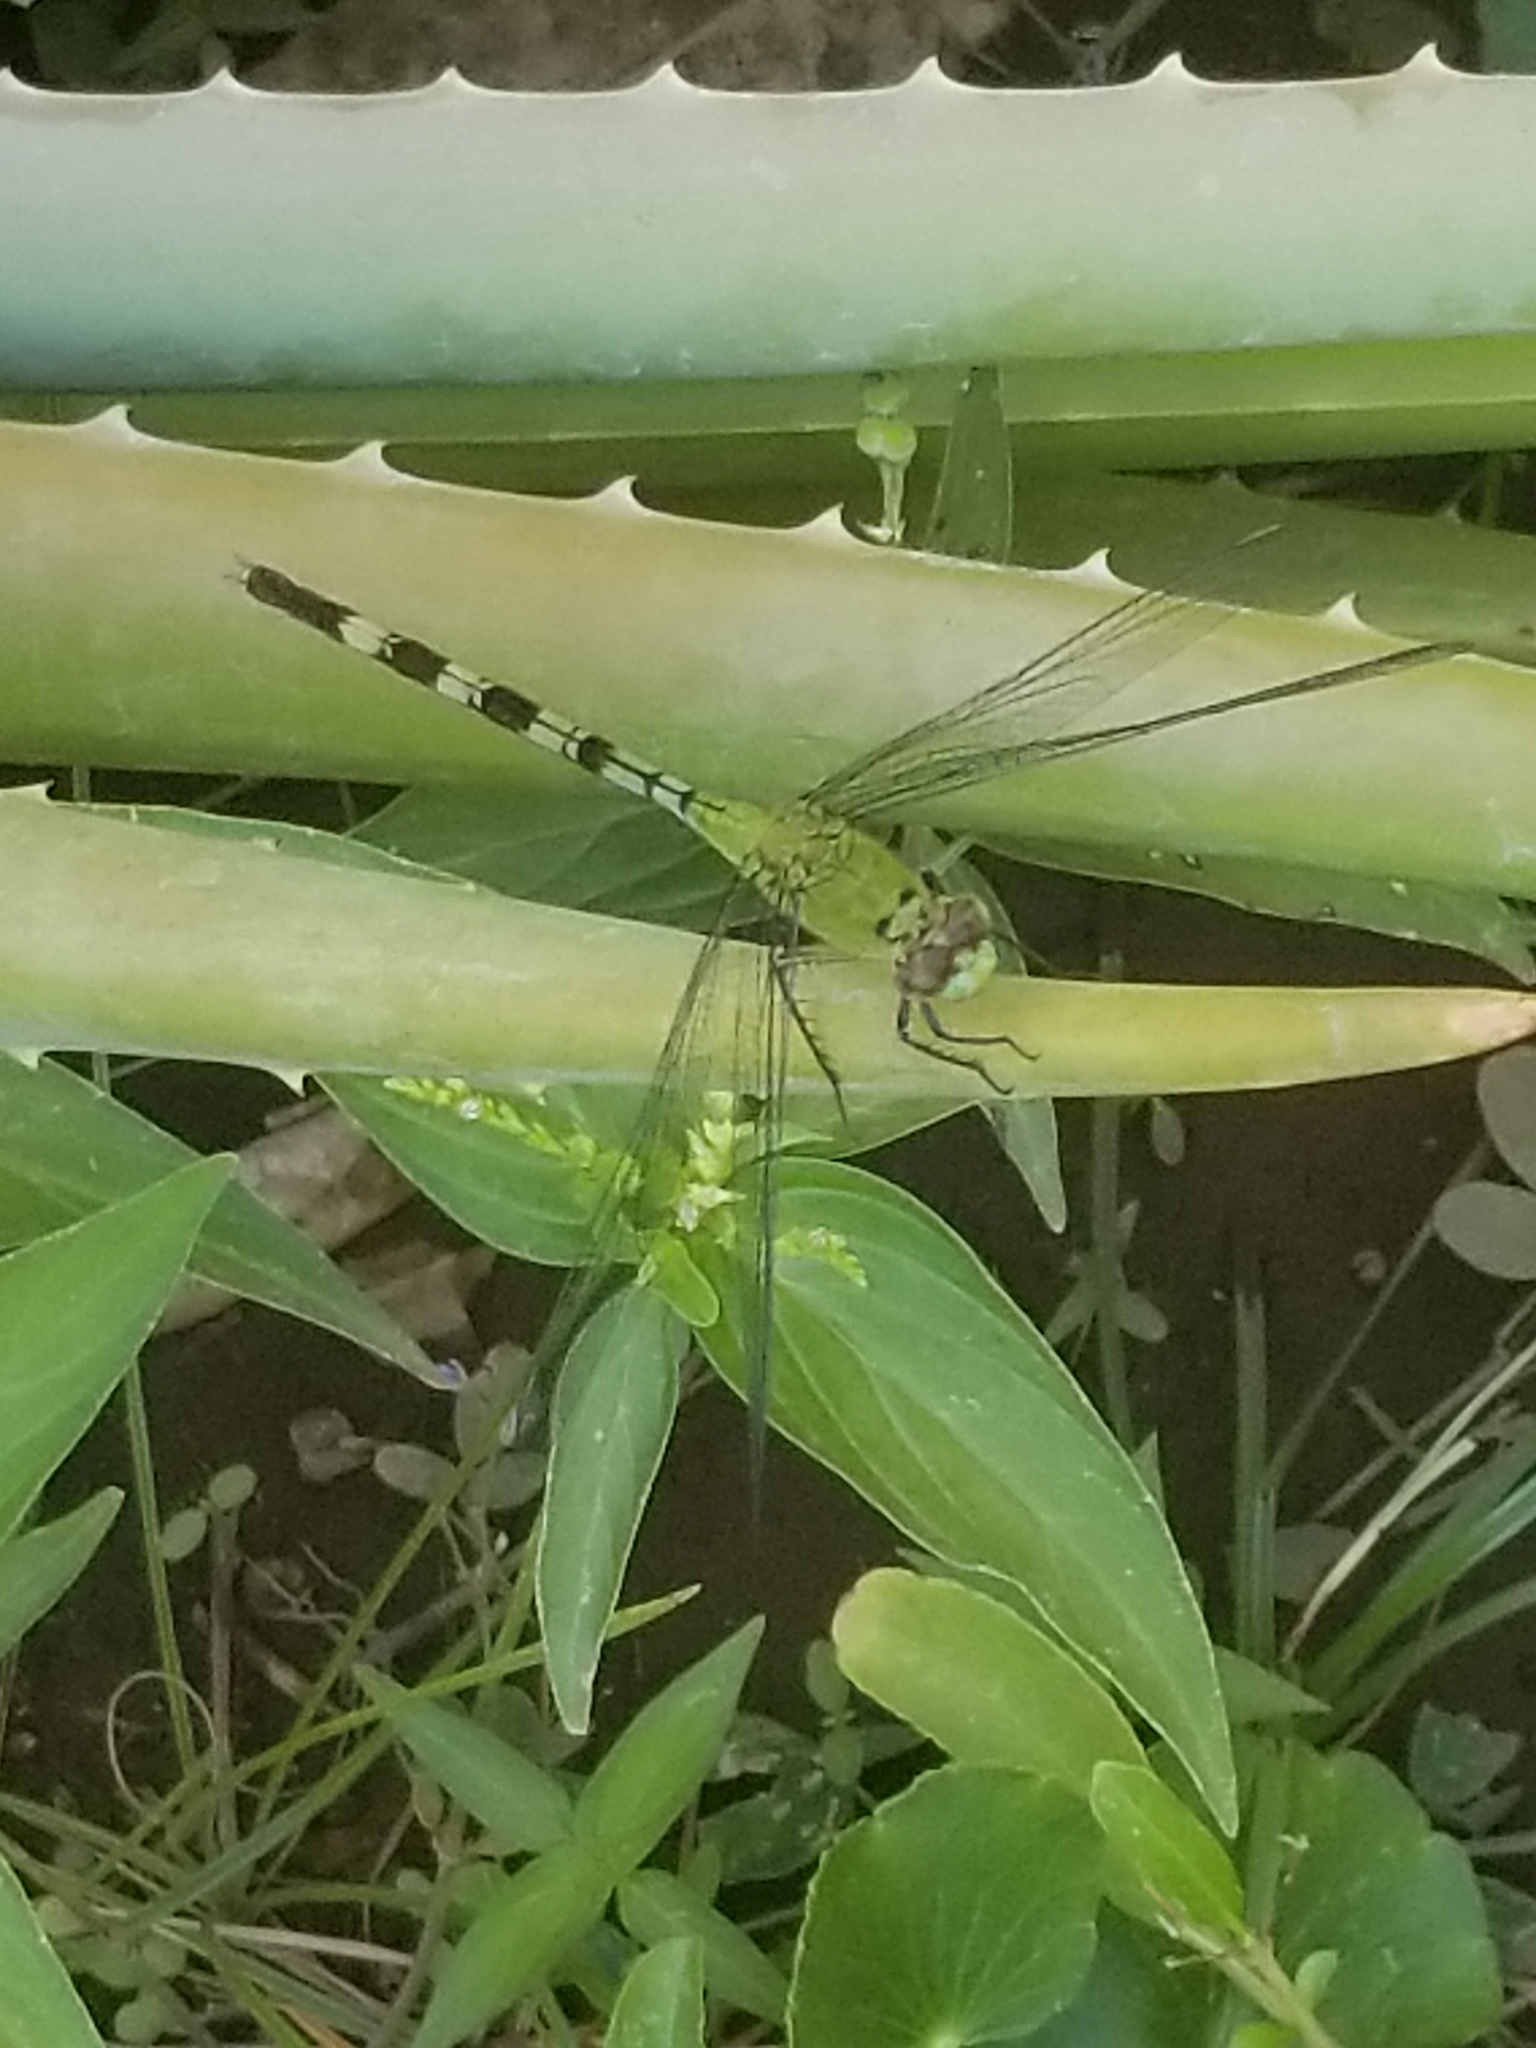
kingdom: Animalia
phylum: Arthropoda
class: Insecta
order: Odonata
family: Libellulidae
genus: Erythemis
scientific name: Erythemis vesiculosa
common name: Great pondhawk
